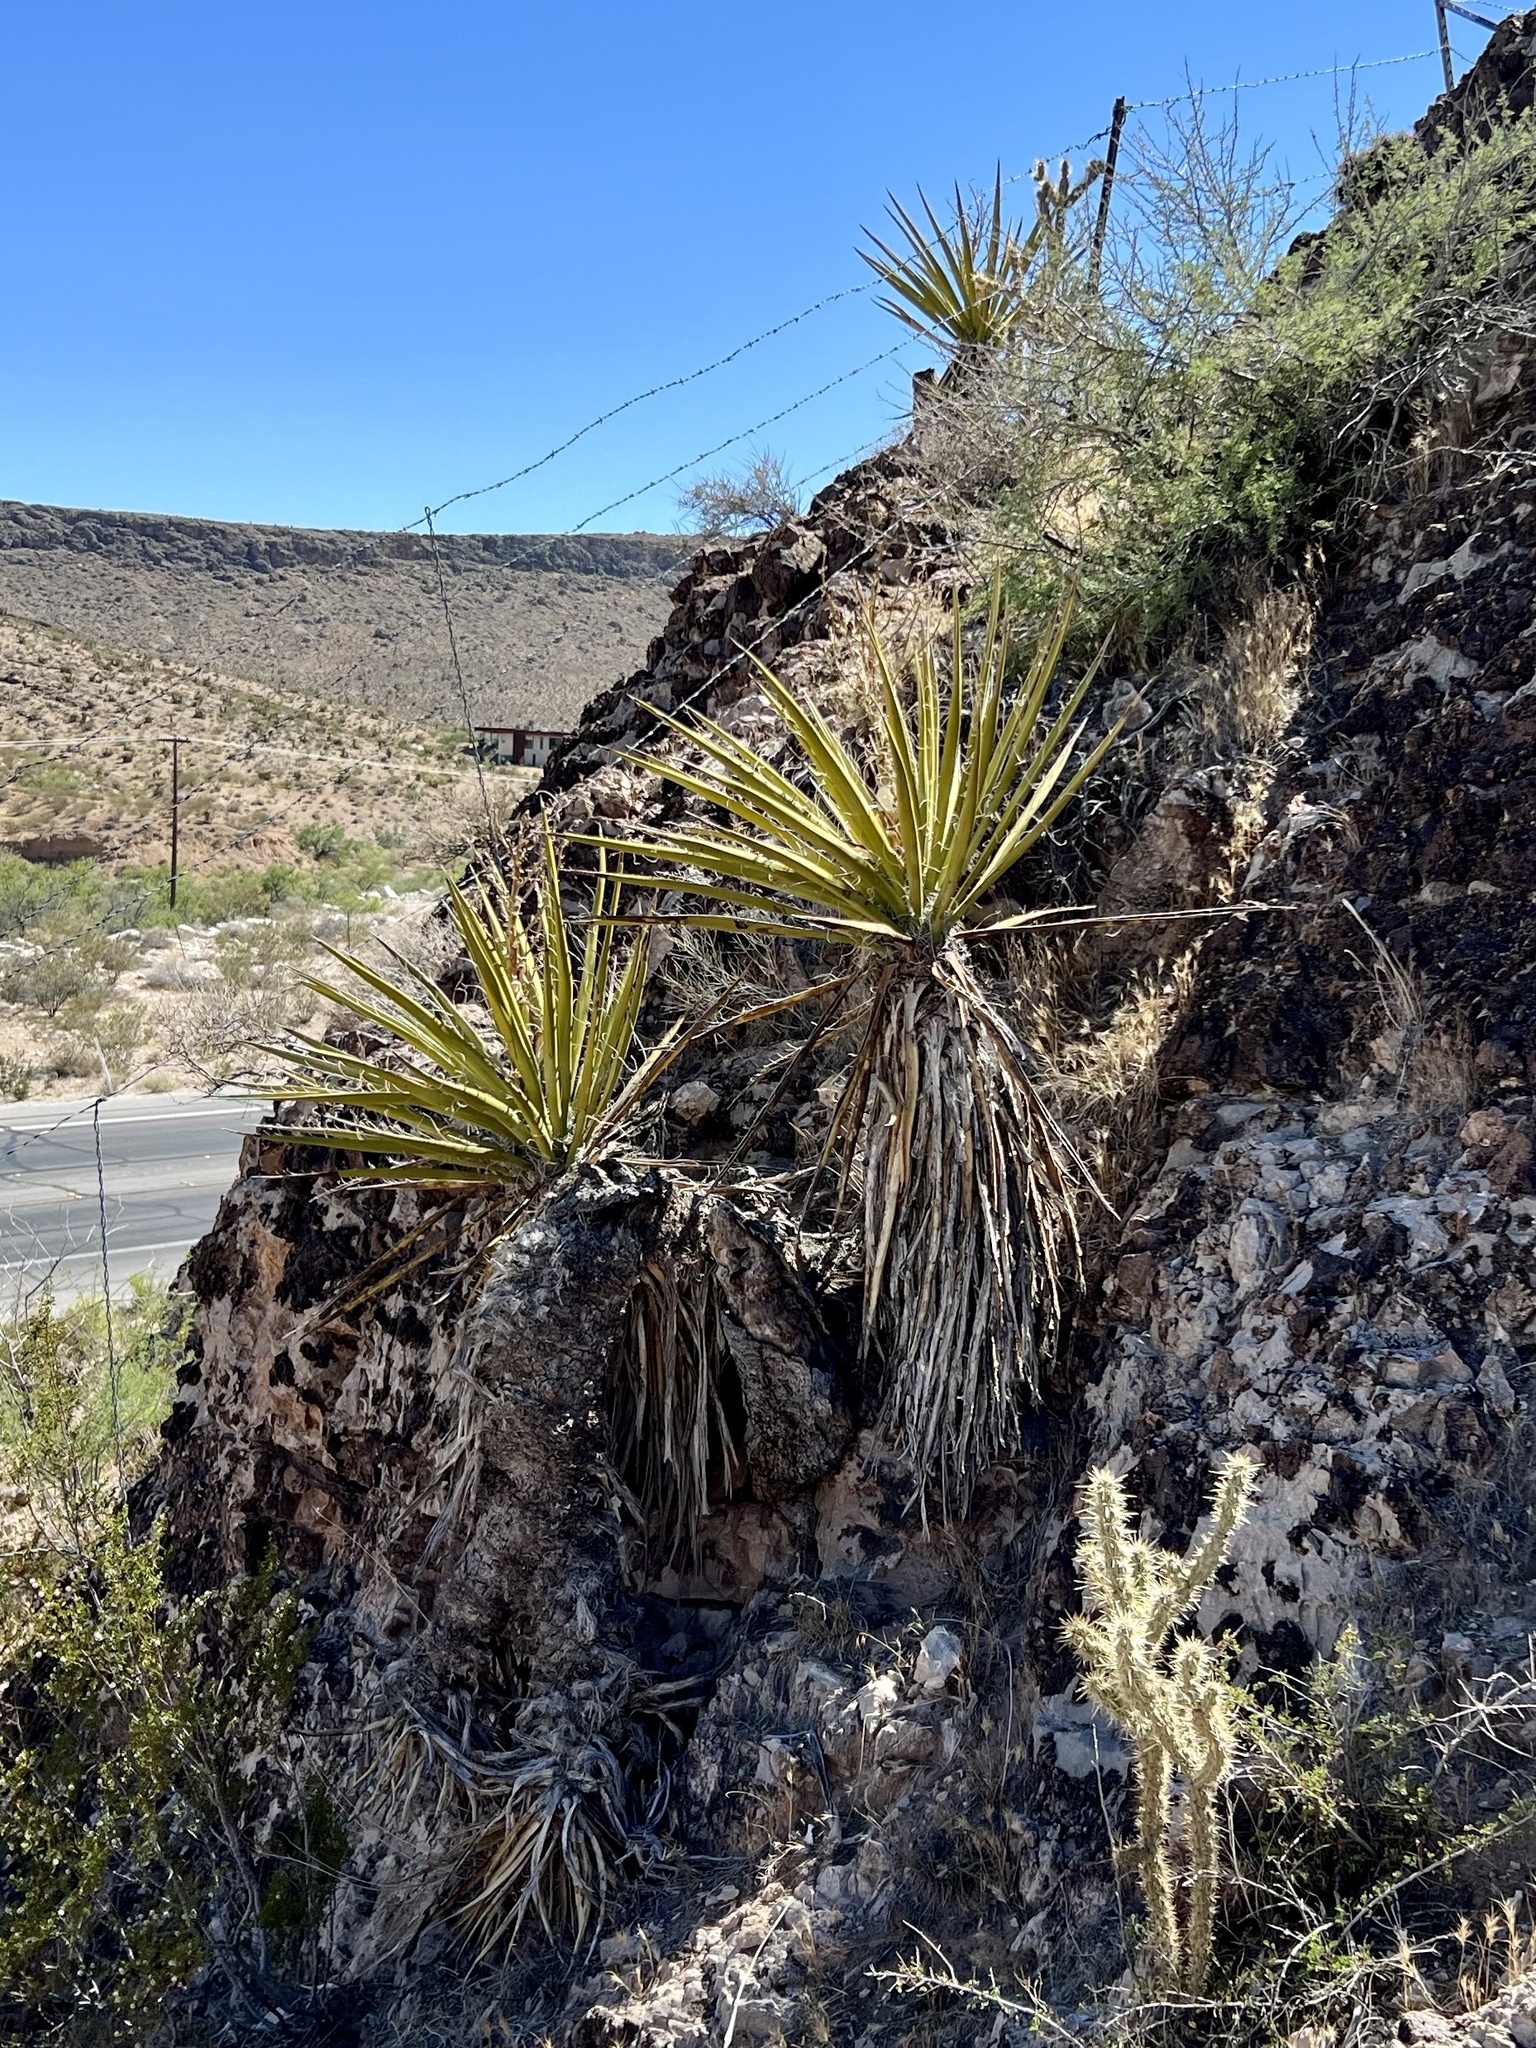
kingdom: Plantae
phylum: Tracheophyta
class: Liliopsida
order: Asparagales
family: Asparagaceae
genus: Yucca
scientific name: Yucca schidigera
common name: Mojave yucca
